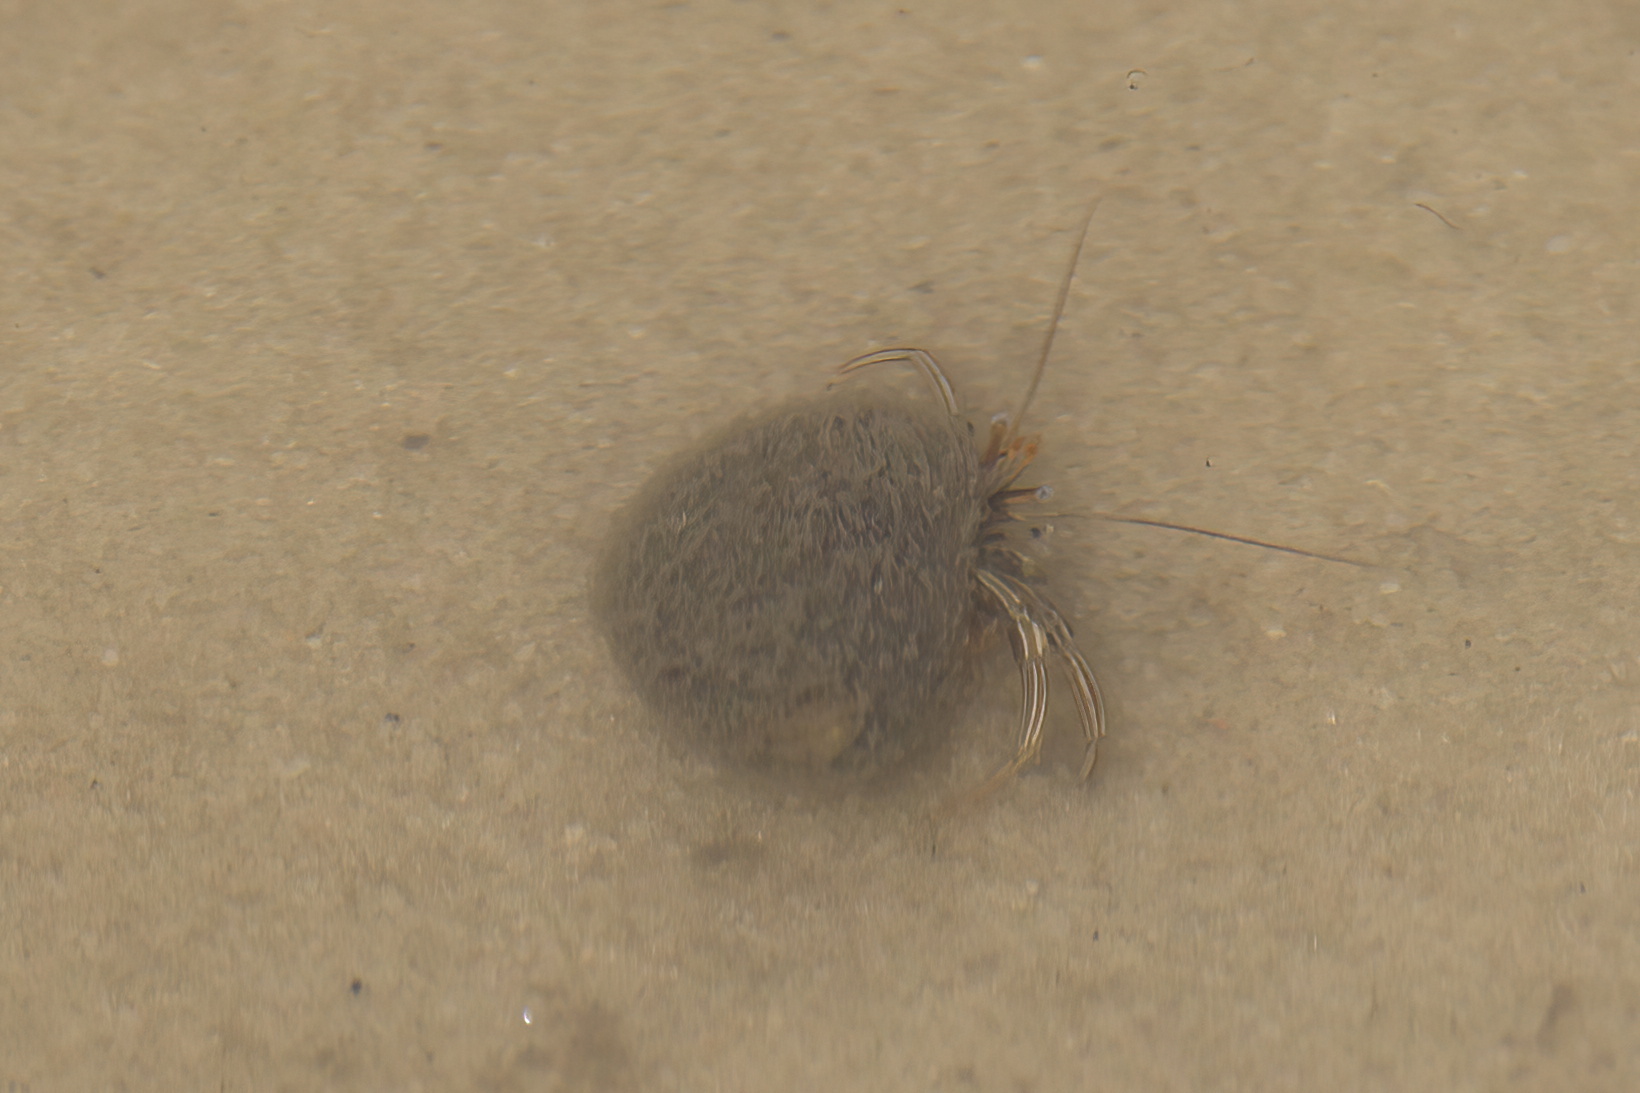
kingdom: Animalia
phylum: Arthropoda
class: Malacostraca
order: Decapoda
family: Diogenidae
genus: Clibanarius
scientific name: Clibanarius vittatus
